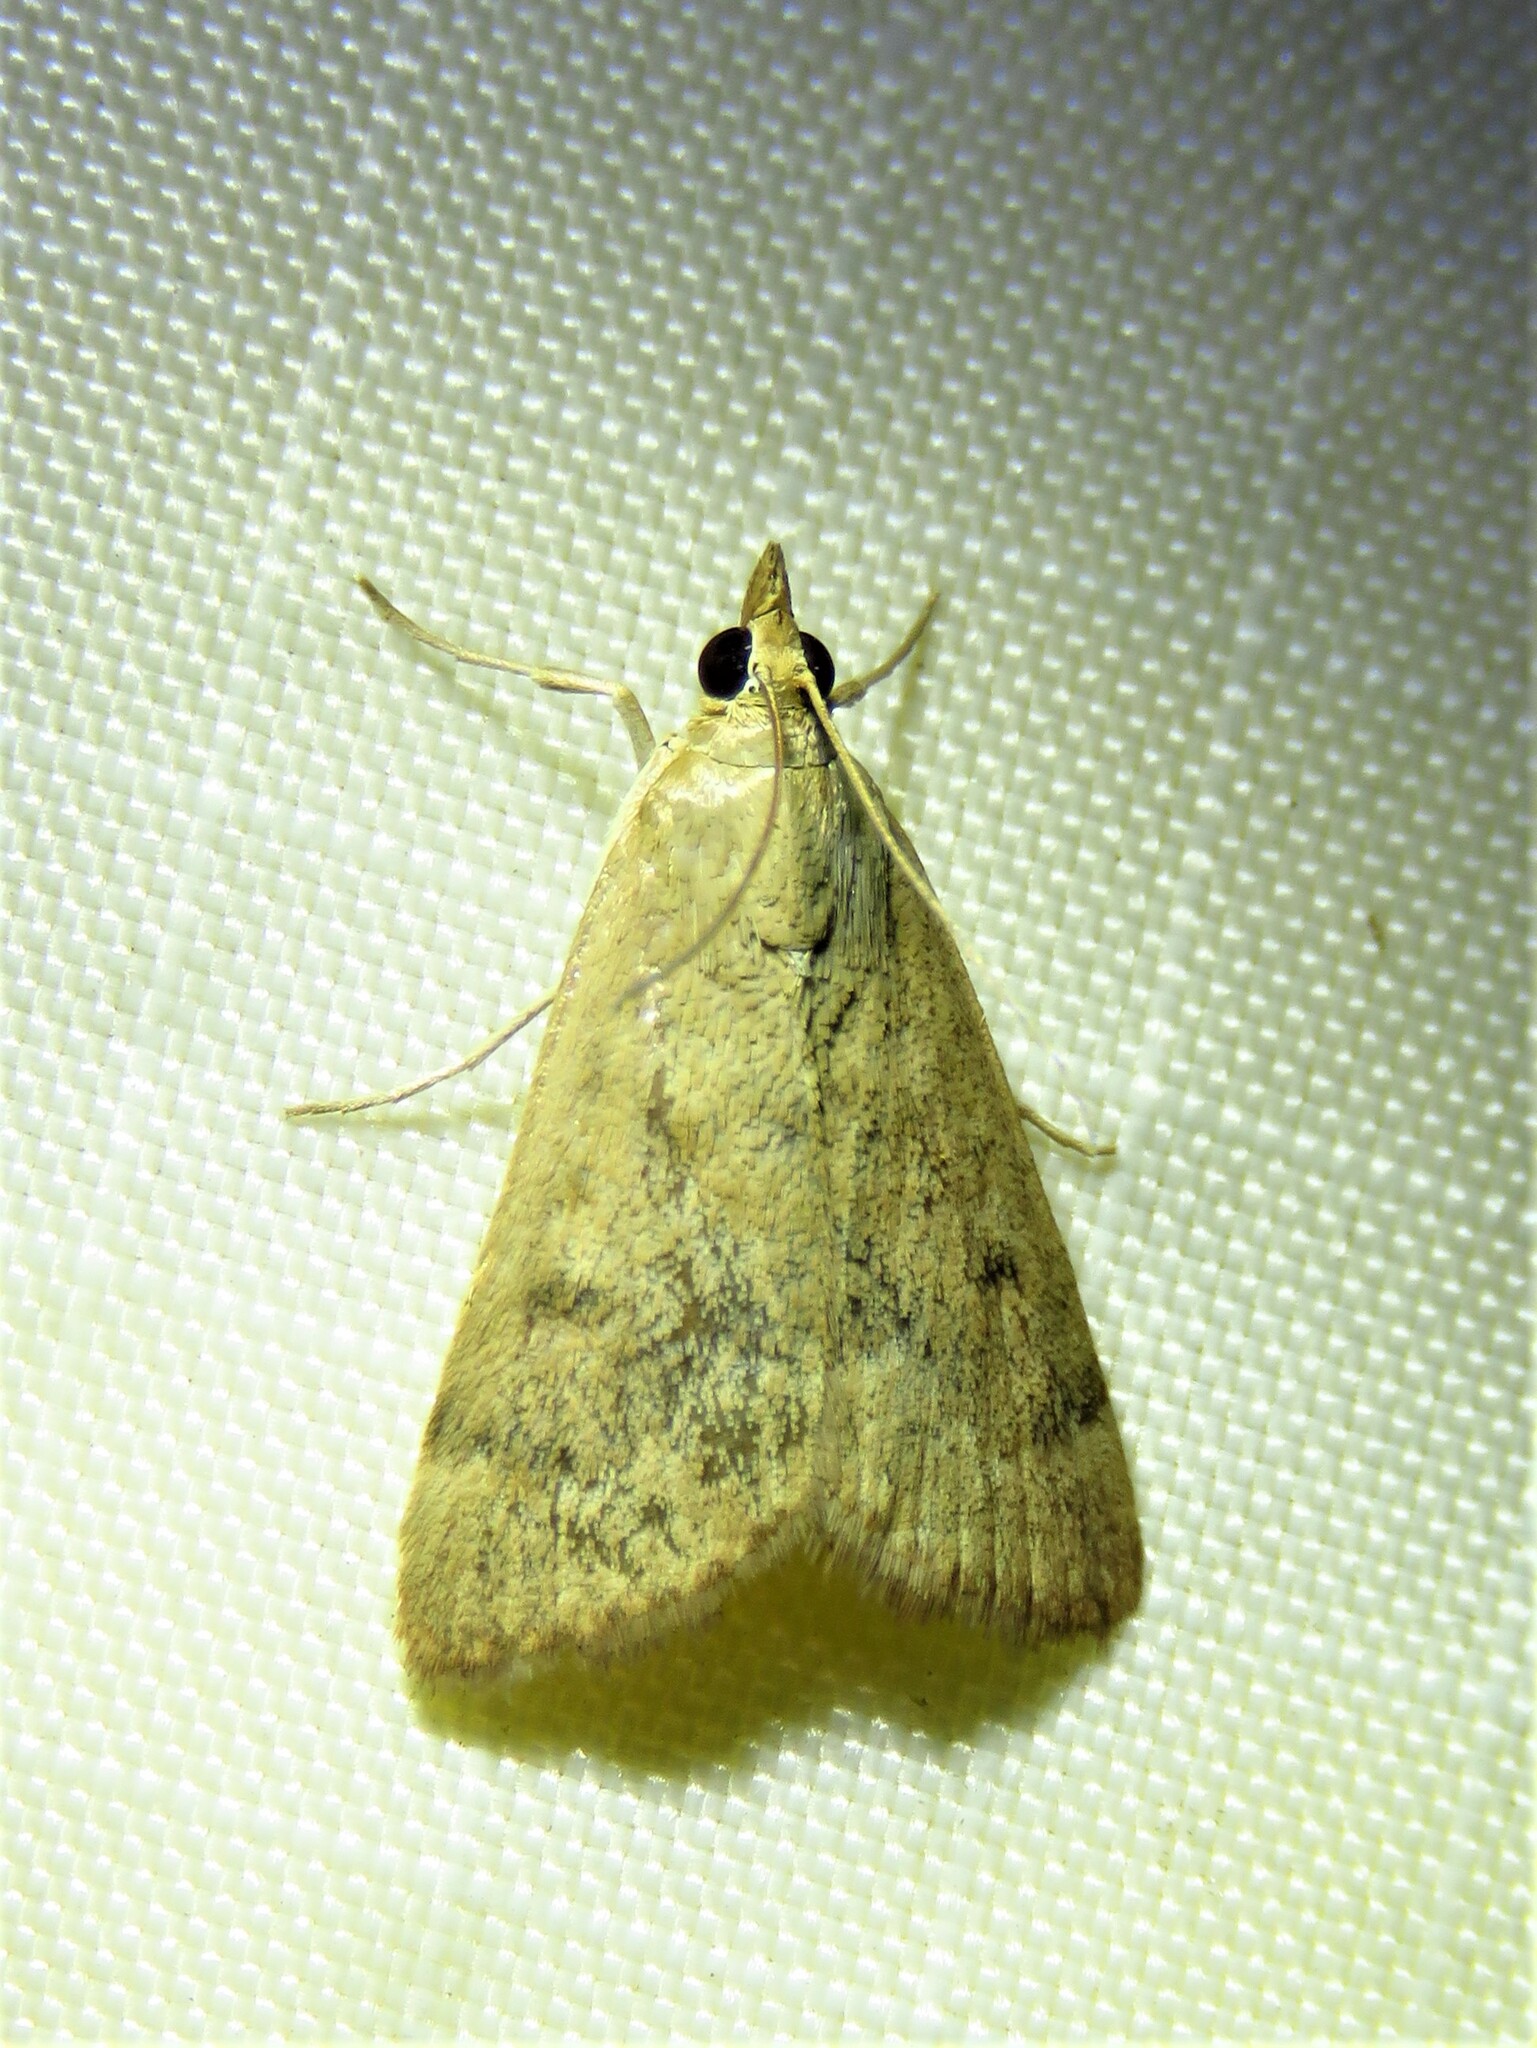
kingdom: Animalia
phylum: Arthropoda
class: Insecta
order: Lepidoptera
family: Crambidae
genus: Achyra
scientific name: Achyra rantalis
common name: Garden webworm
